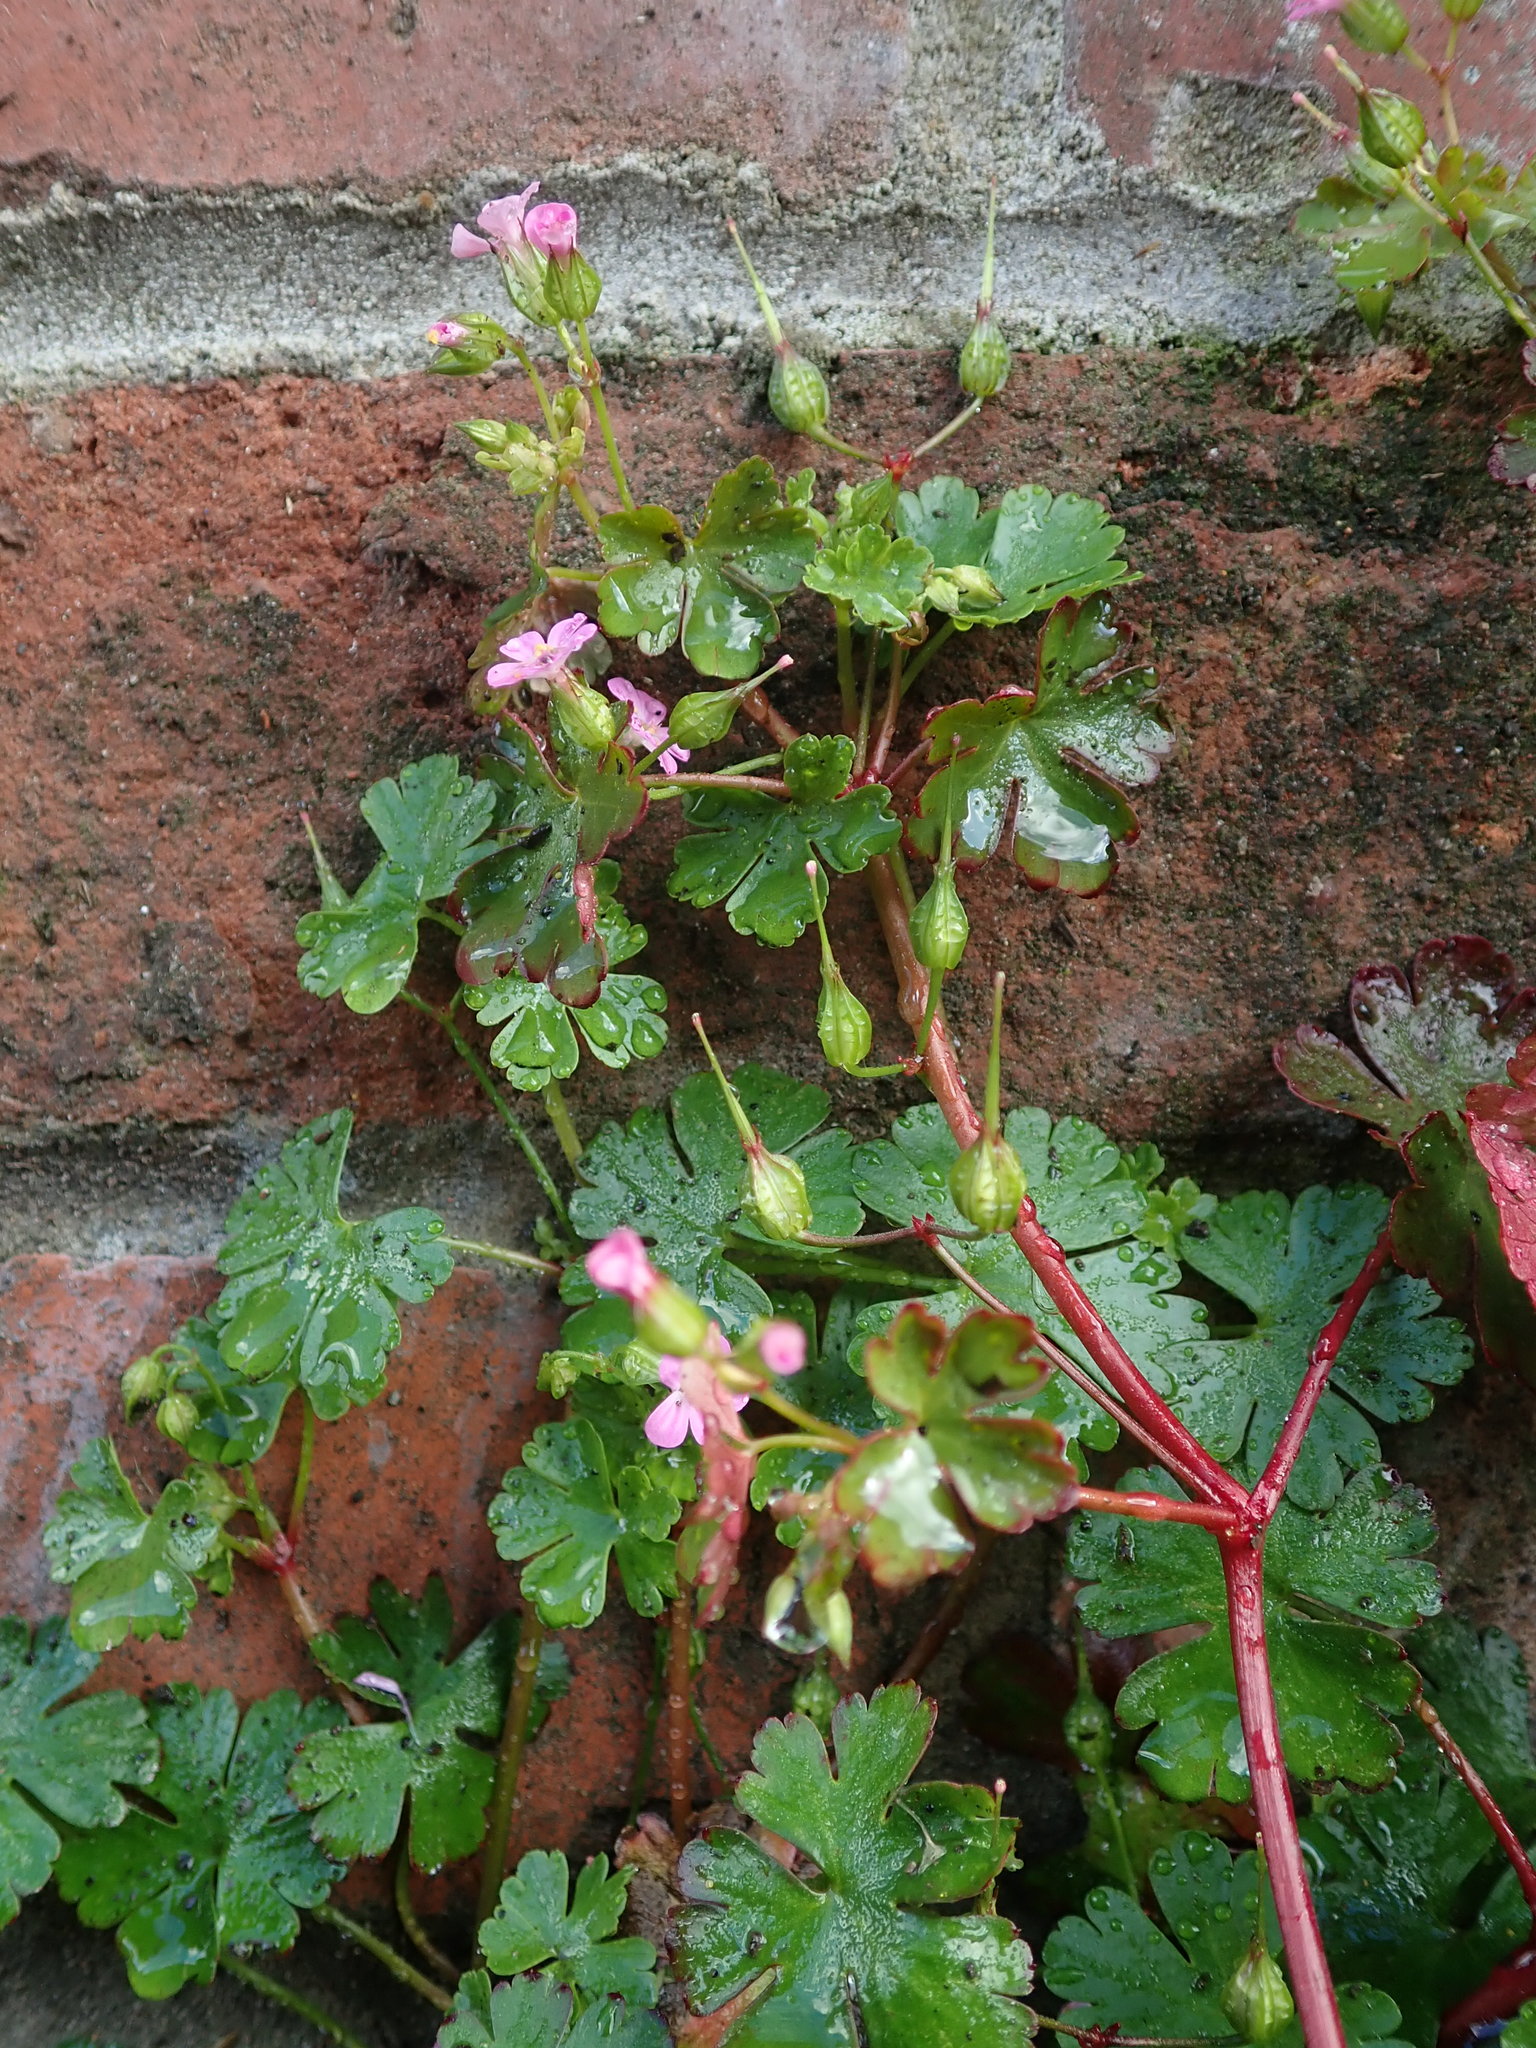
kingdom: Plantae
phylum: Tracheophyta
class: Magnoliopsida
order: Geraniales
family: Geraniaceae
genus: Geranium
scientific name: Geranium lucidum
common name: Shining crane's-bill
